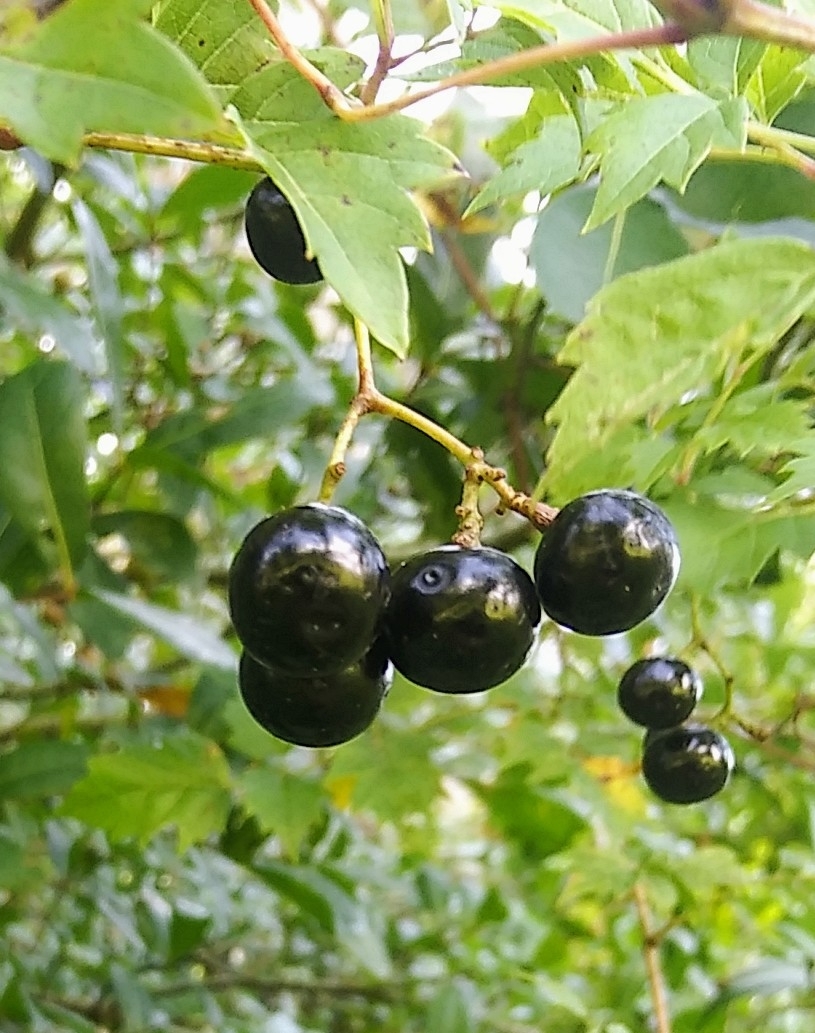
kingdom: Plantae
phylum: Tracheophyta
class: Magnoliopsida
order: Vitales
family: Vitaceae
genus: Nekemias
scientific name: Nekemias arborea
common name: Peppervine
